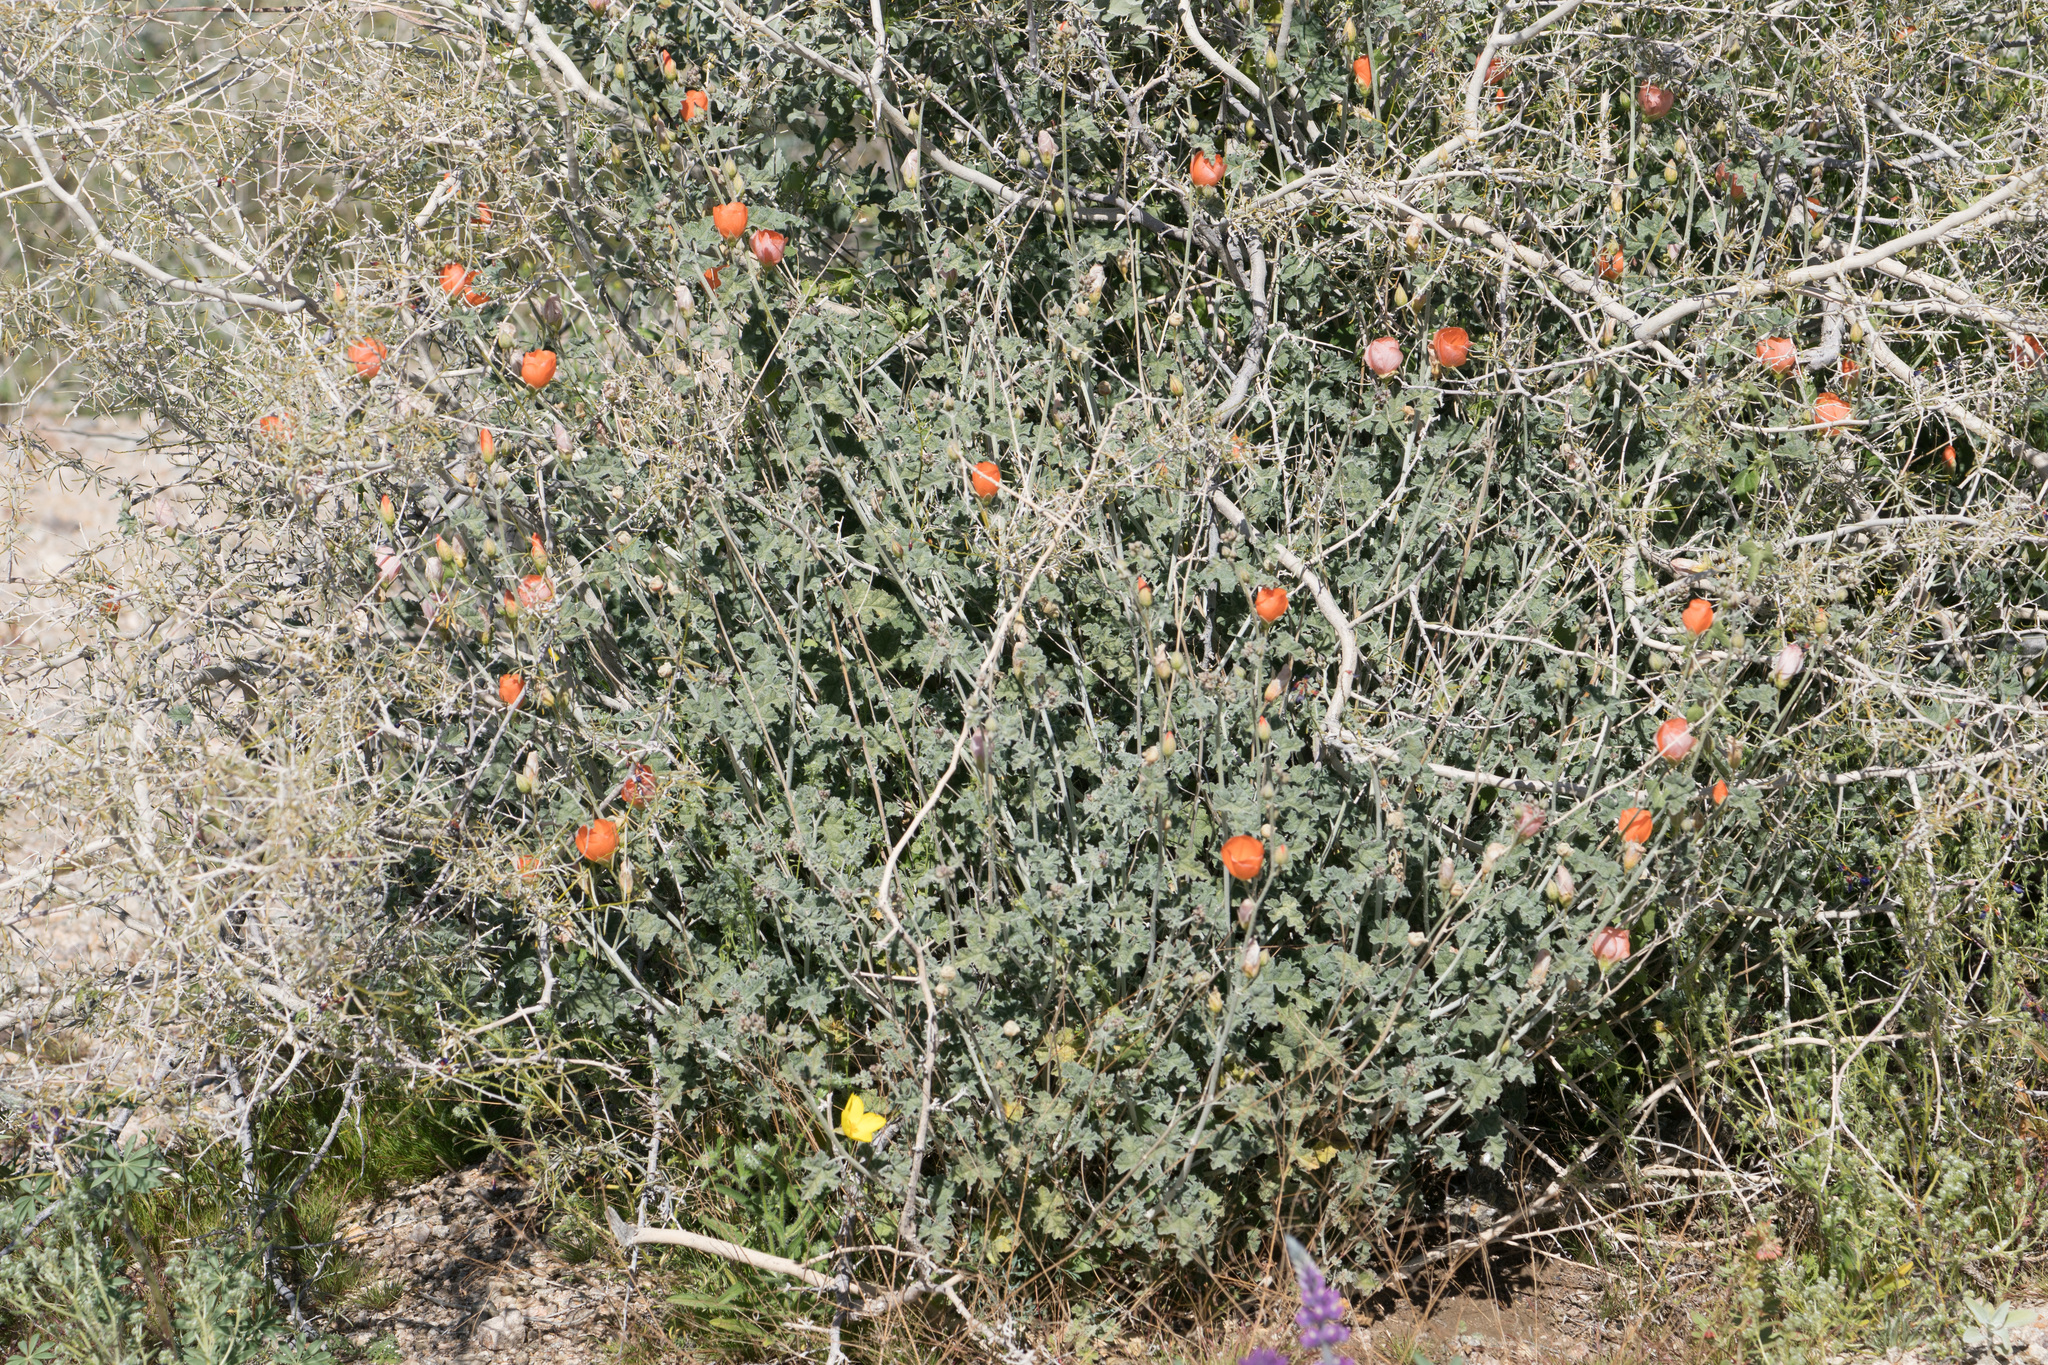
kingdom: Plantae
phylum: Tracheophyta
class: Magnoliopsida
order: Malvales
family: Malvaceae
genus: Sphaeralcea
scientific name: Sphaeralcea ambigua
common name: Apricot globe-mallow
